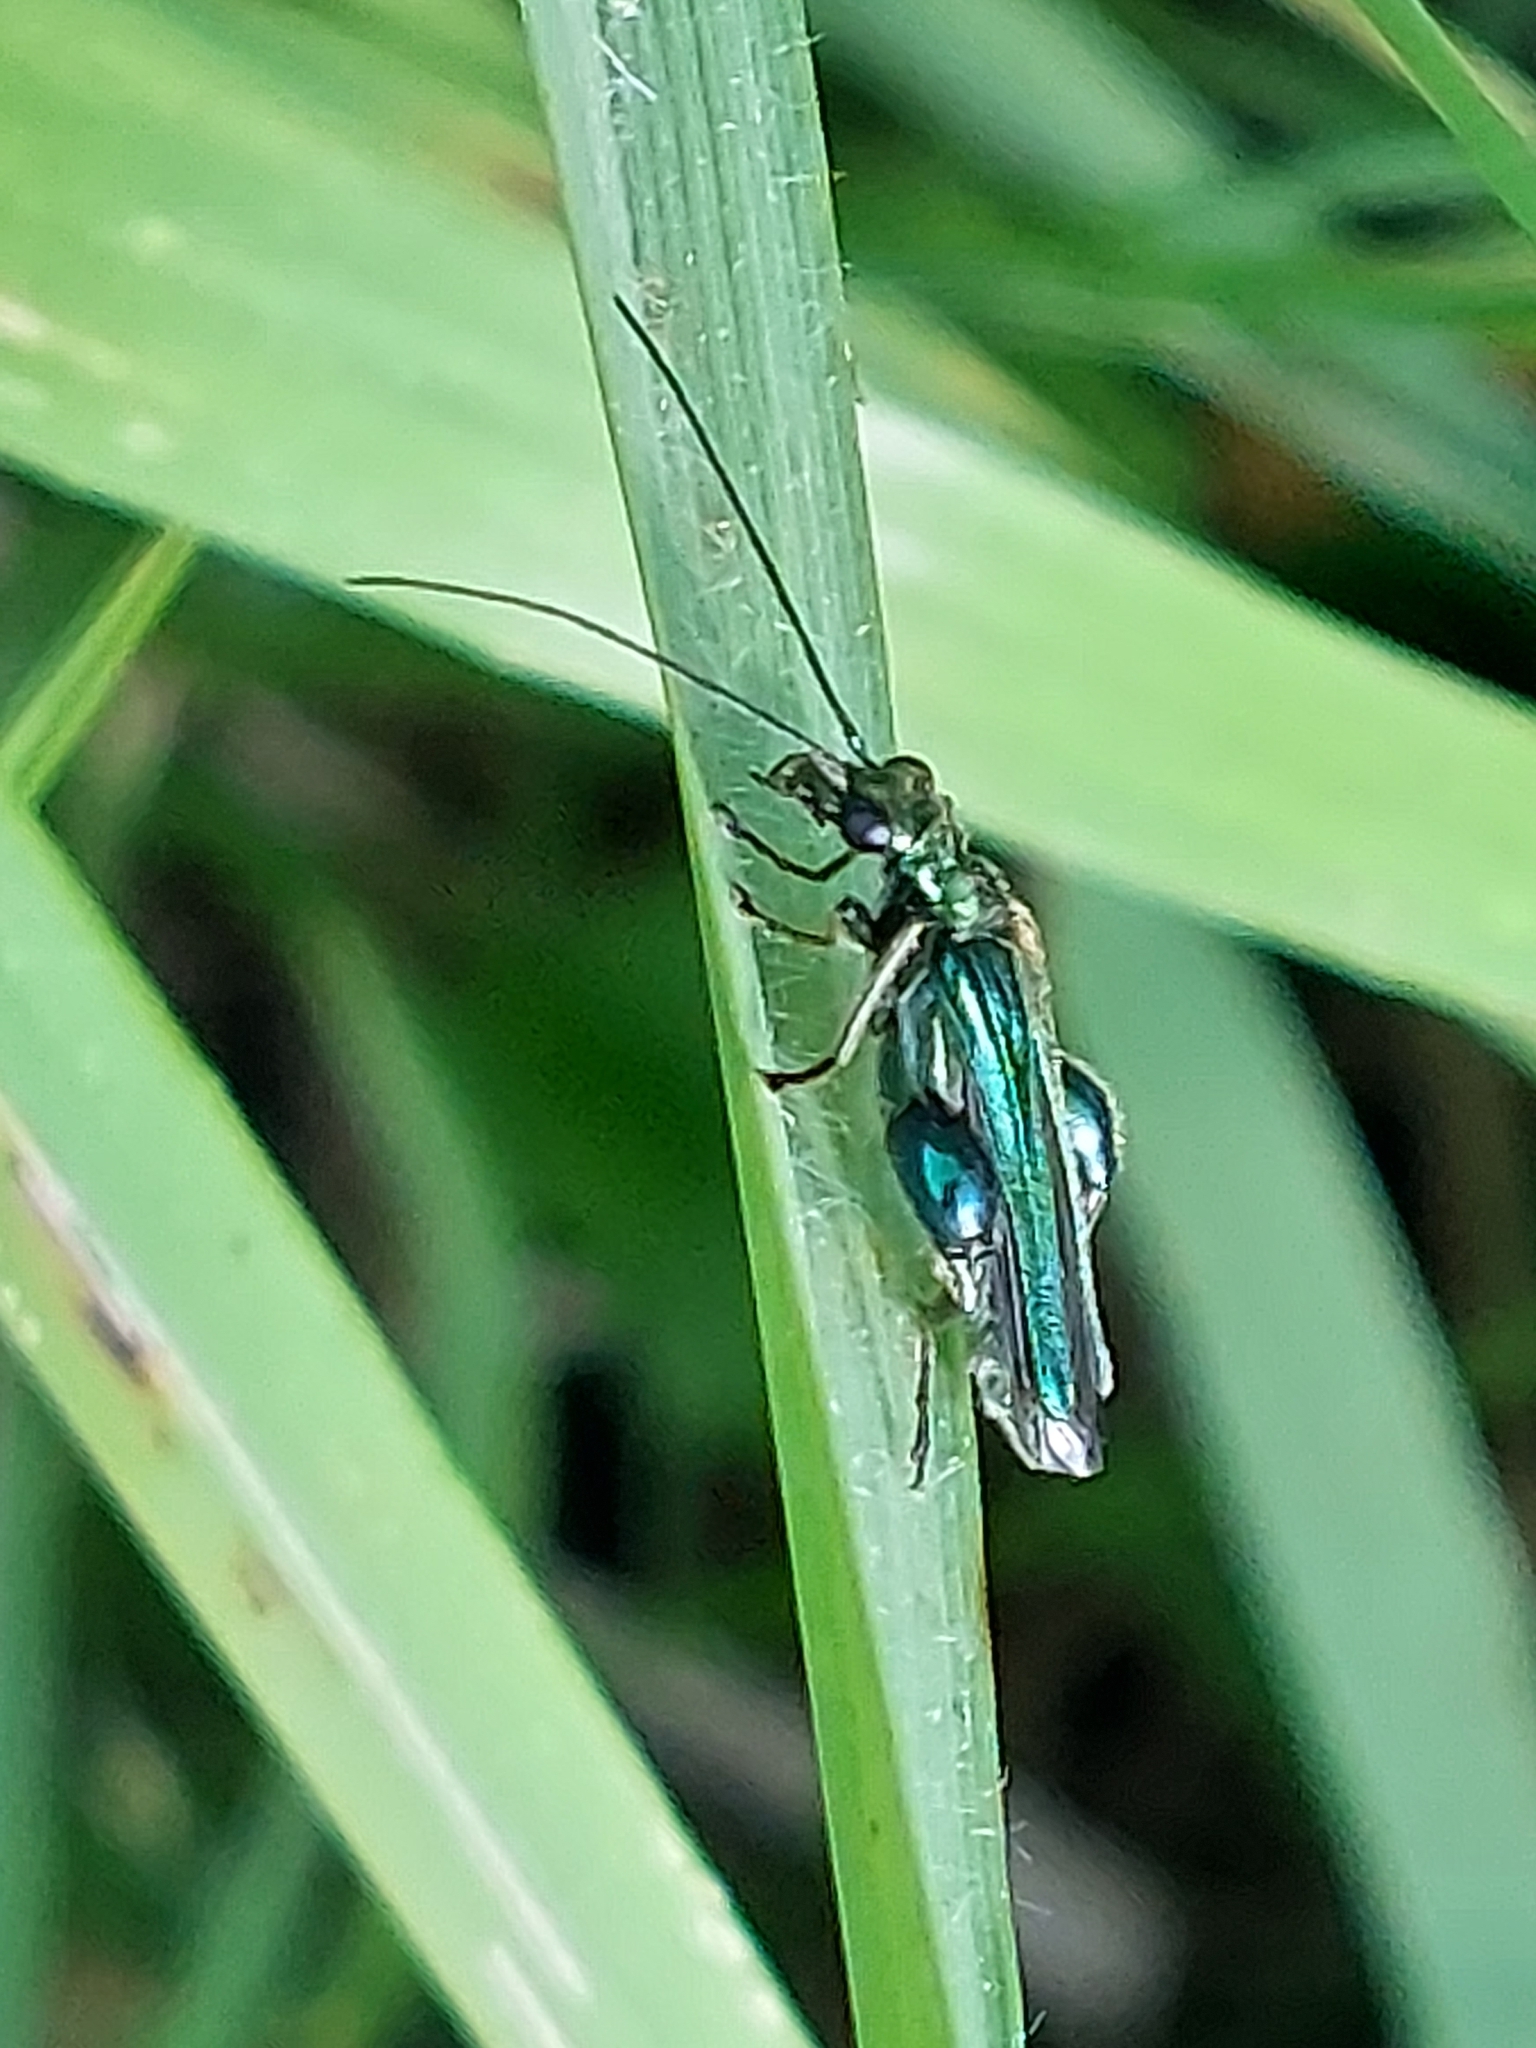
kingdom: Animalia
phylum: Arthropoda
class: Insecta
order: Coleoptera
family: Oedemeridae
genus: Oedemera
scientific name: Oedemera nobilis
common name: Swollen-thighed beetle
